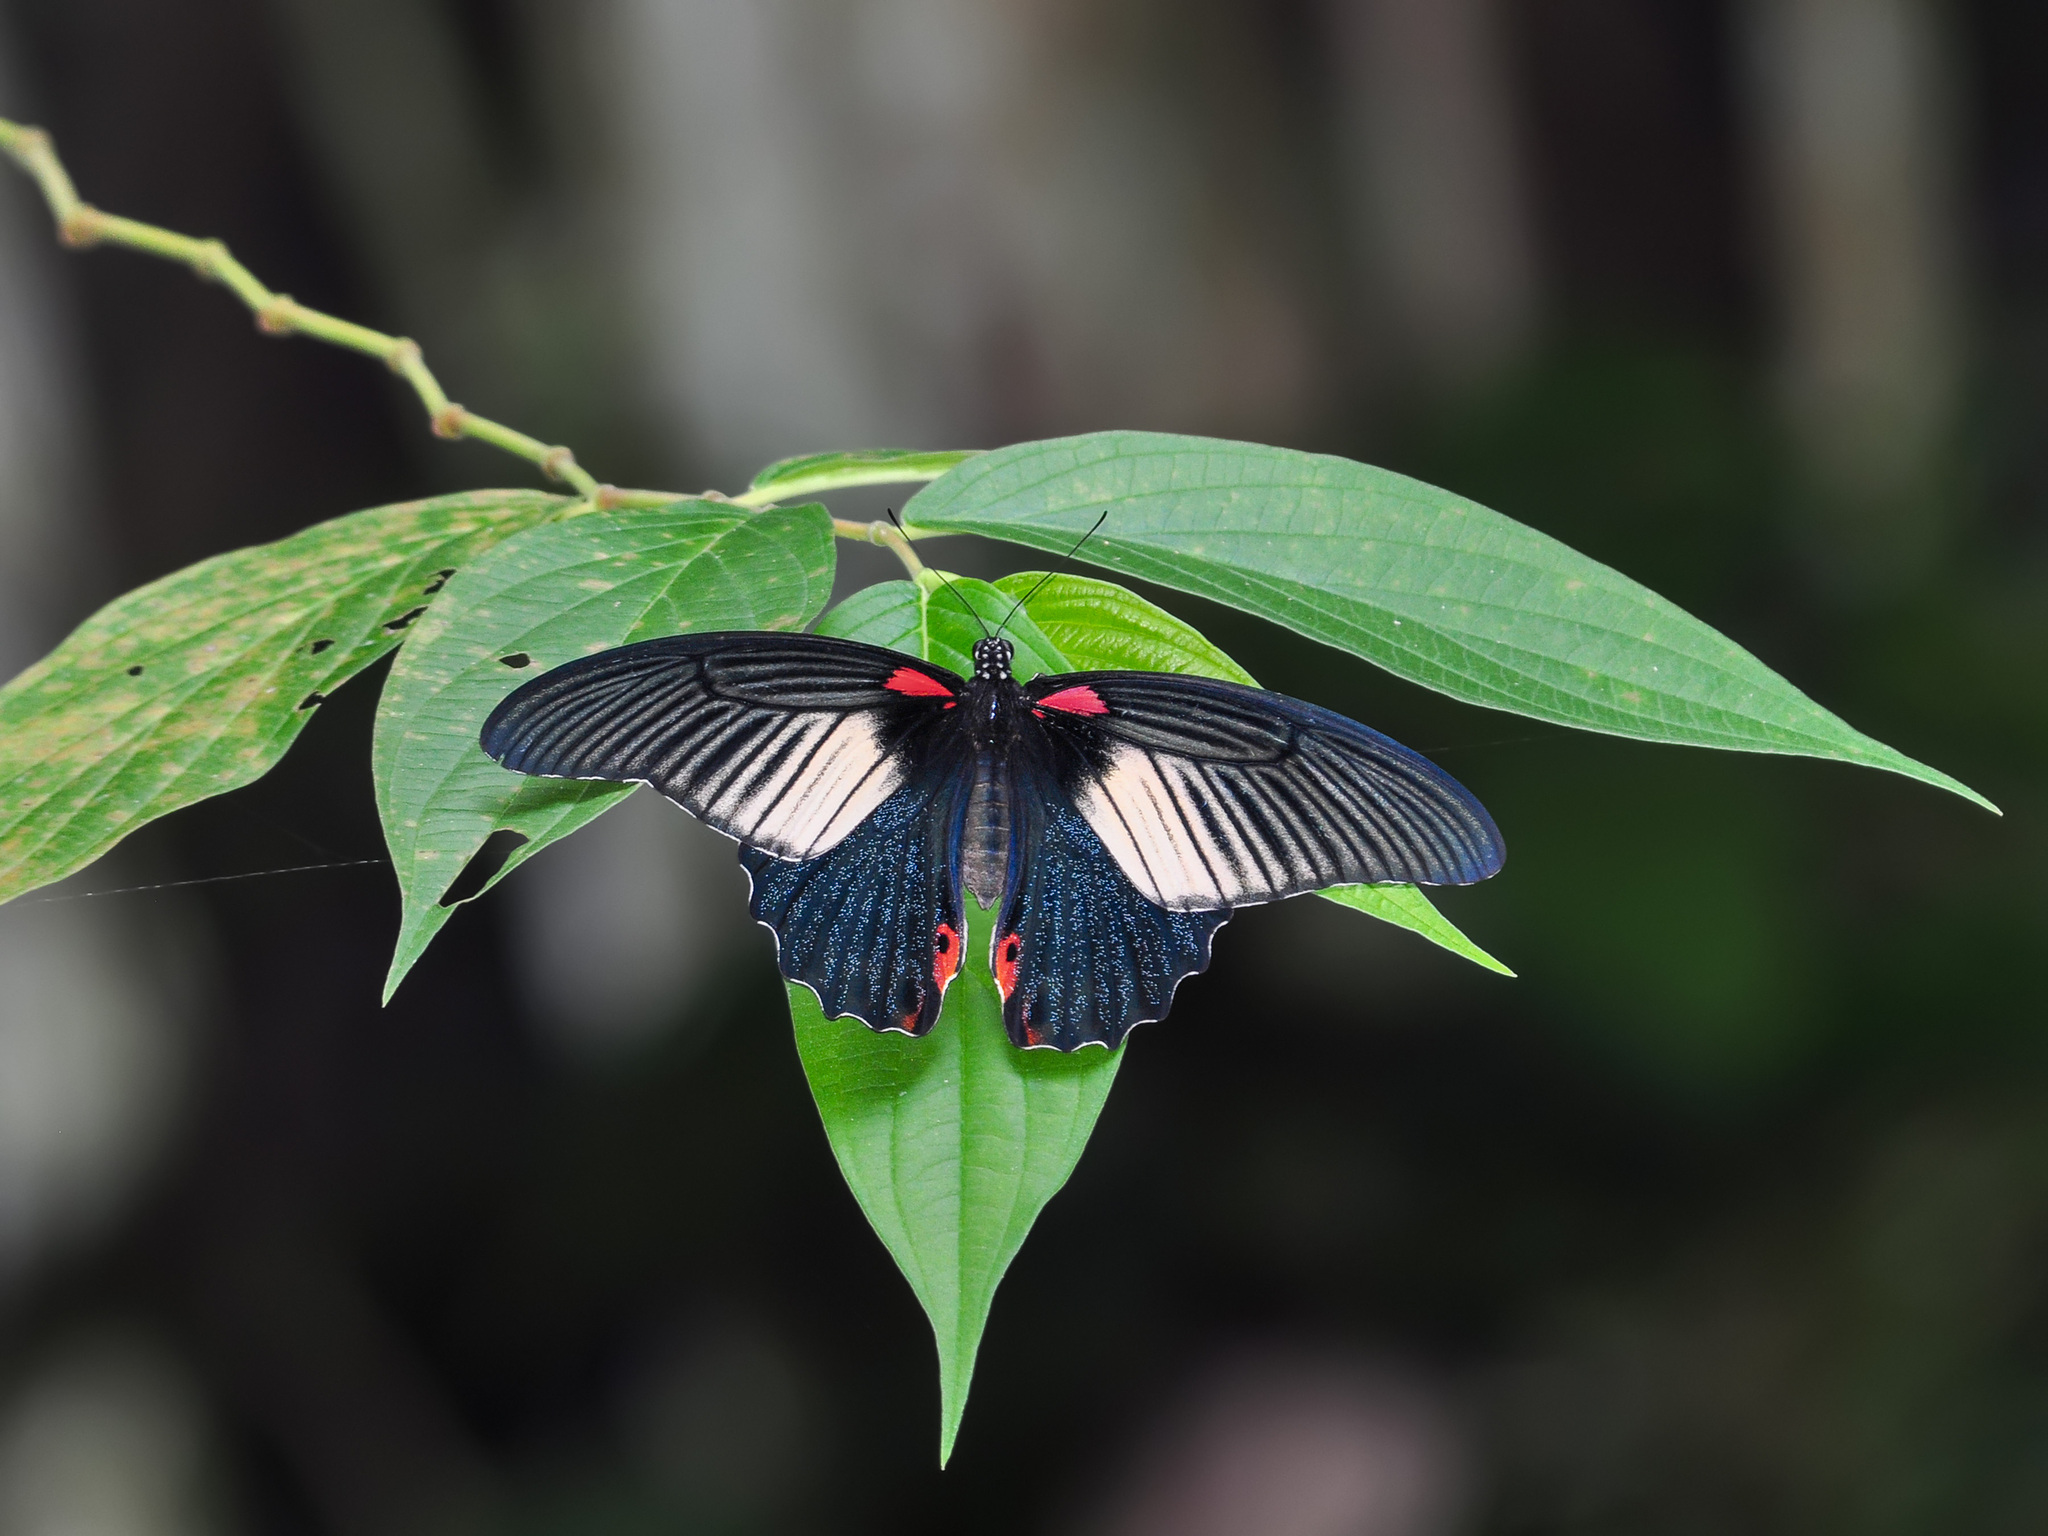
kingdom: Animalia
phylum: Arthropoda
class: Insecta
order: Lepidoptera
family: Papilionidae
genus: Papilio
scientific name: Papilio memnon
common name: Great mormon
